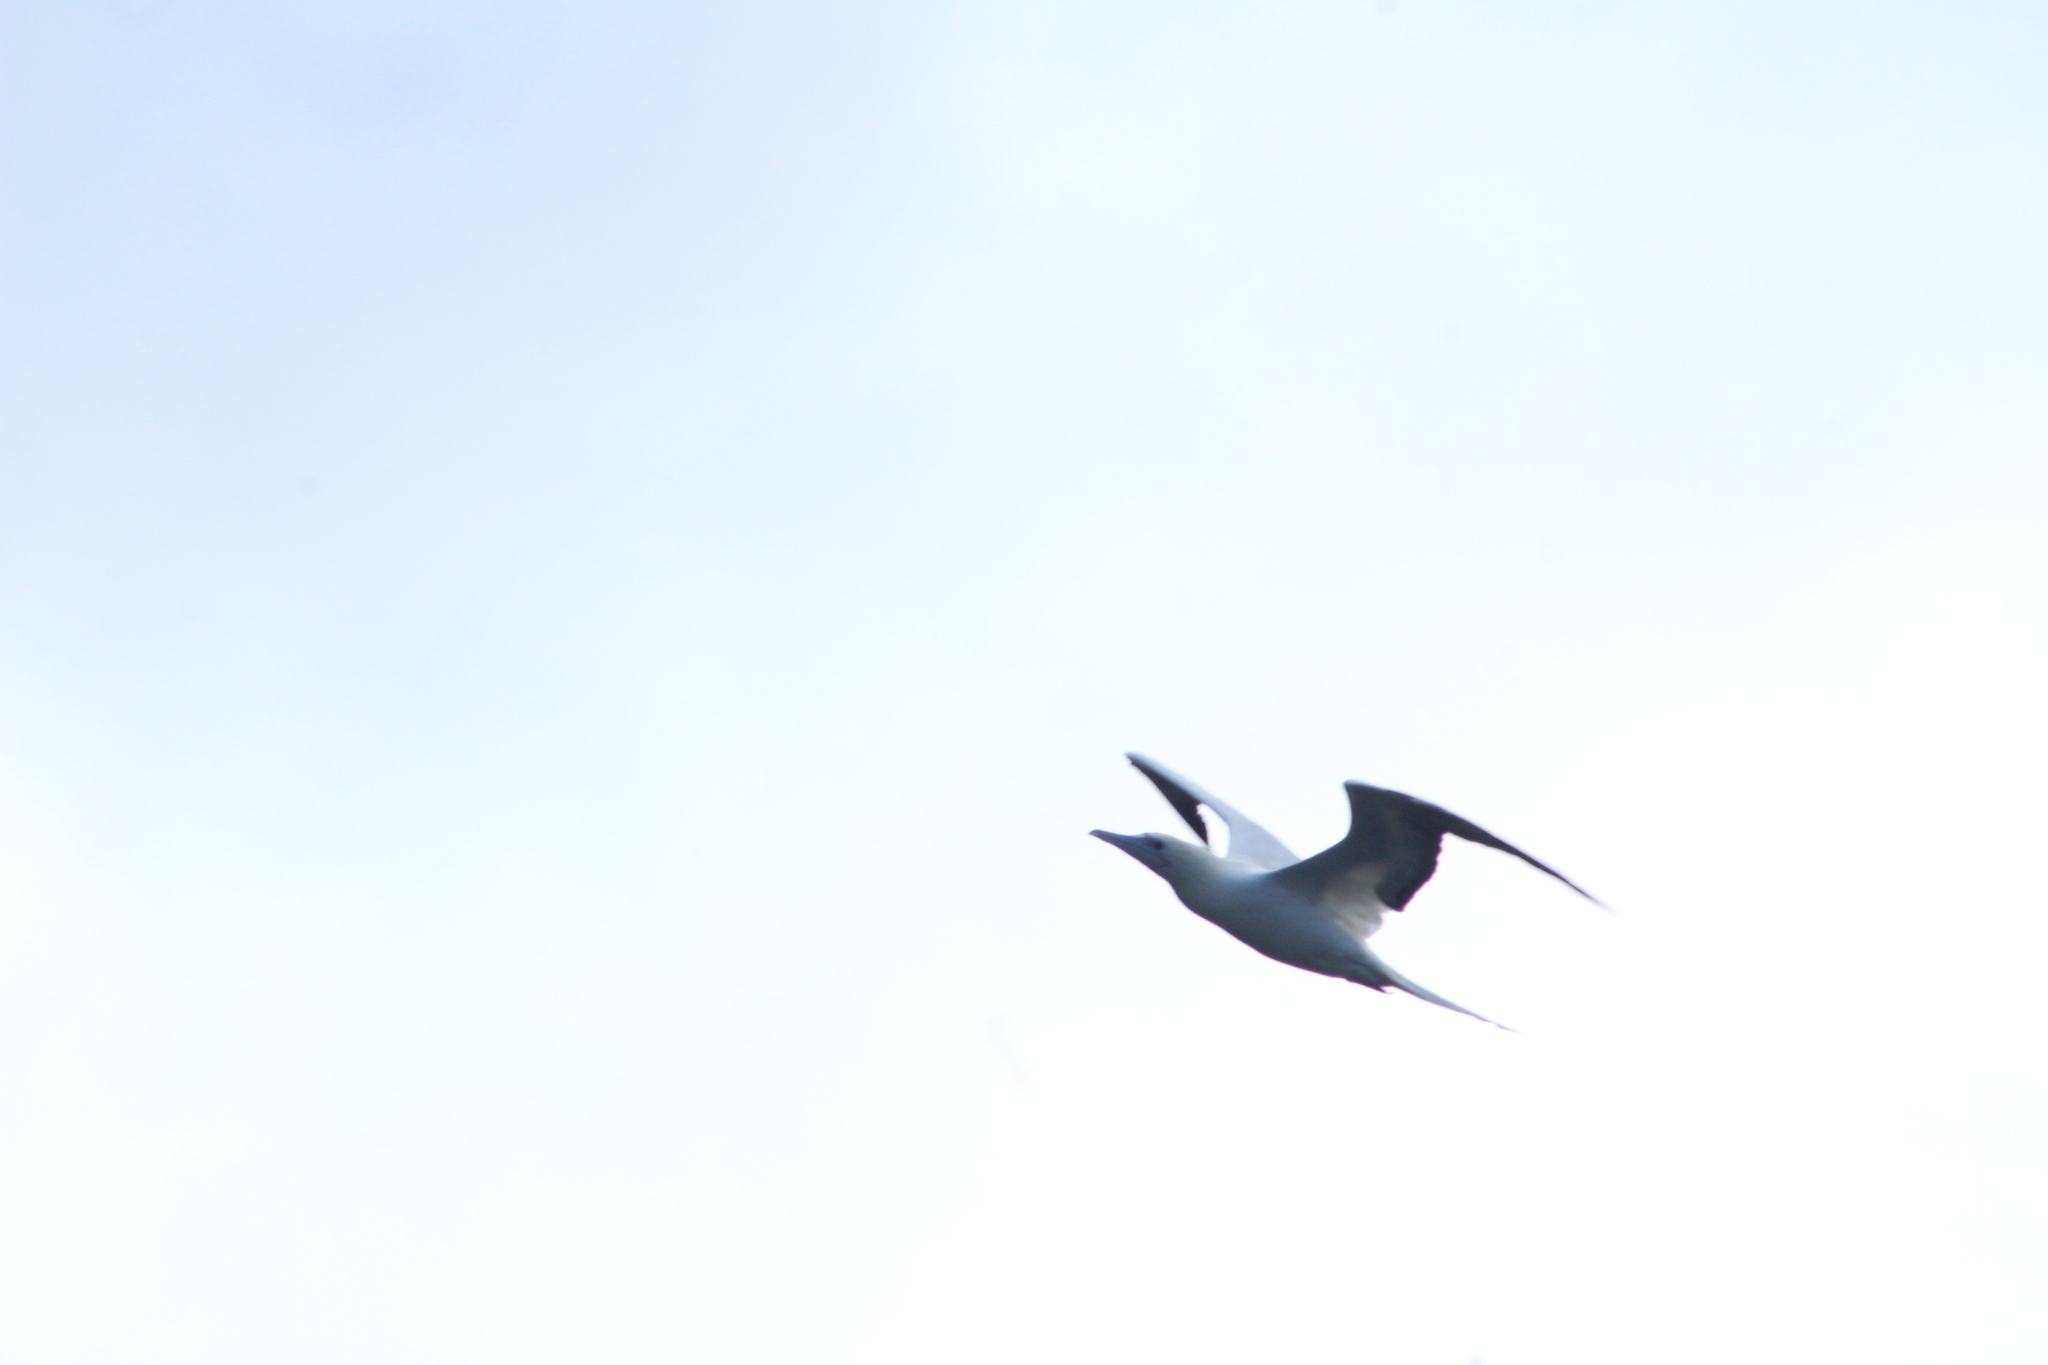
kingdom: Animalia
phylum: Chordata
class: Aves
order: Suliformes
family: Sulidae
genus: Sula
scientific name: Sula sula
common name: Red-footed booby
